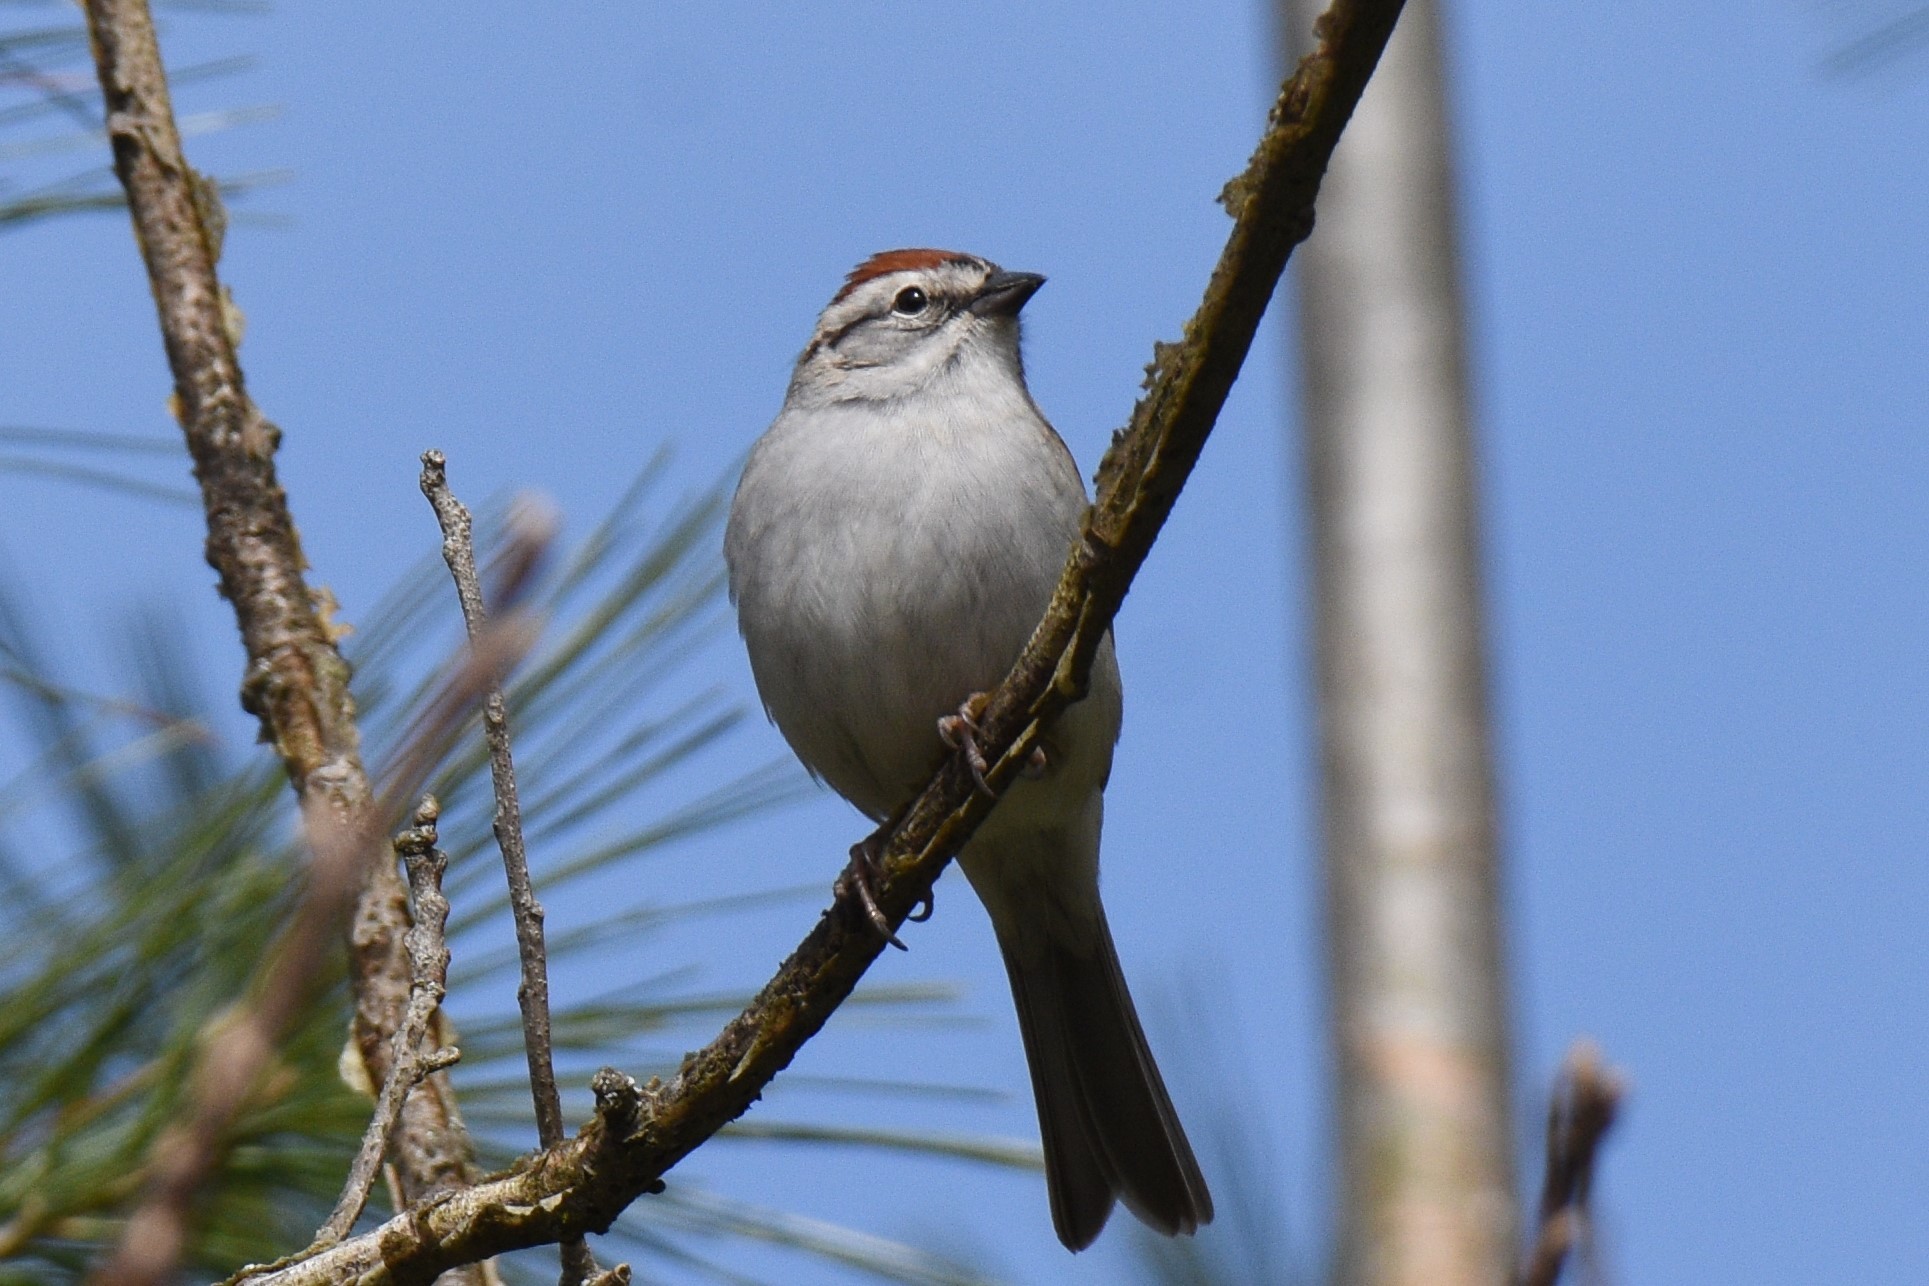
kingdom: Animalia
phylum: Chordata
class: Aves
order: Passeriformes
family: Passerellidae
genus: Spizella
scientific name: Spizella passerina
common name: Chipping sparrow
